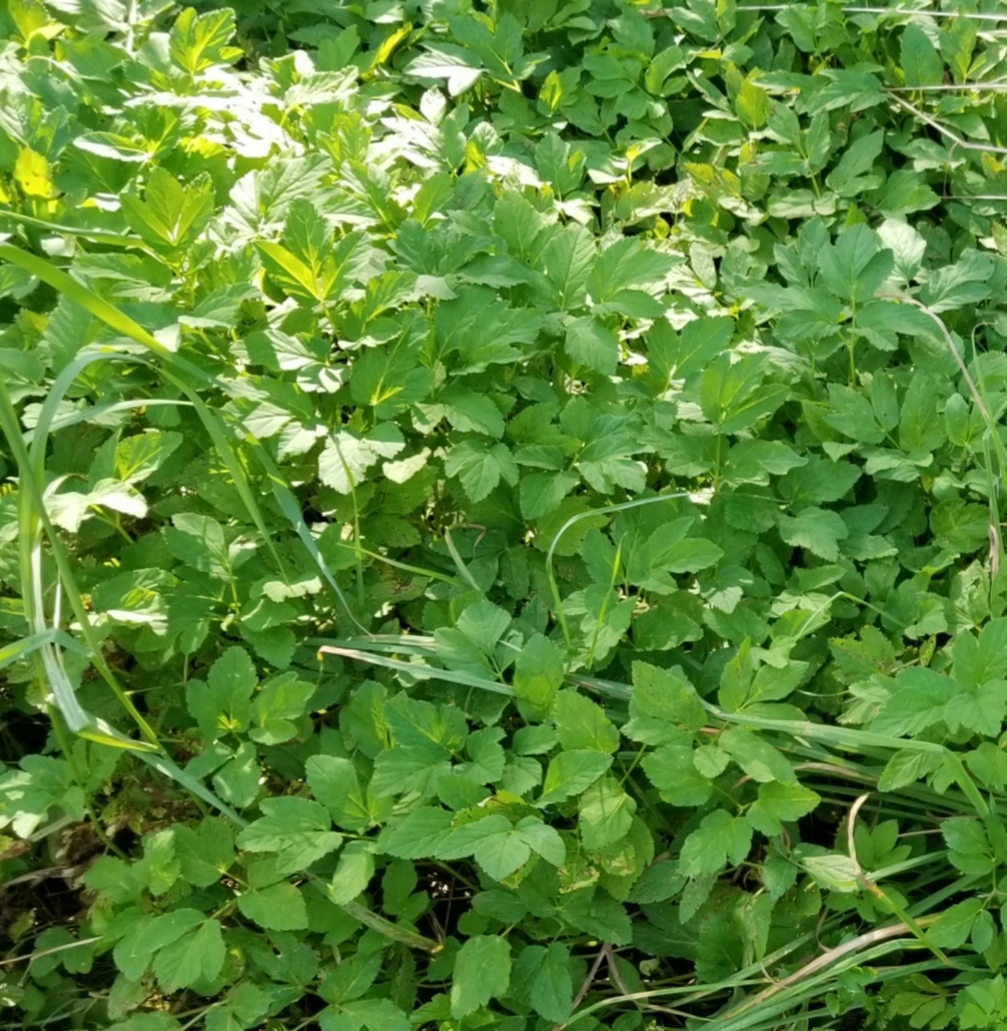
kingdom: Plantae
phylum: Tracheophyta
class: Magnoliopsida
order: Apiales
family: Apiaceae
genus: Aegopodium
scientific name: Aegopodium podagraria
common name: Ground-elder
